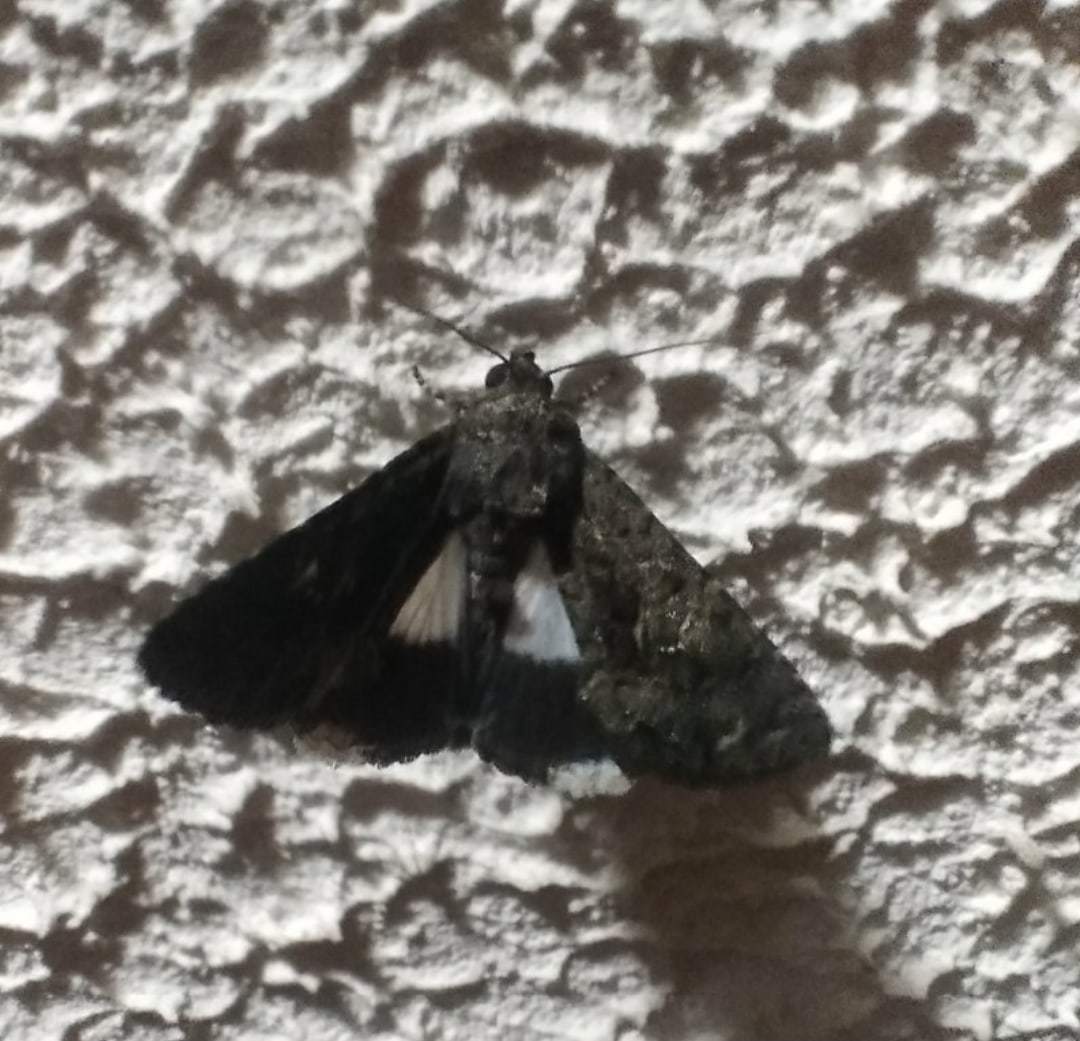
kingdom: Animalia
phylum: Arthropoda
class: Insecta
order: Lepidoptera
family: Noctuidae
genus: Aedia
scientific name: Aedia leucomelas
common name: Sorcerer
